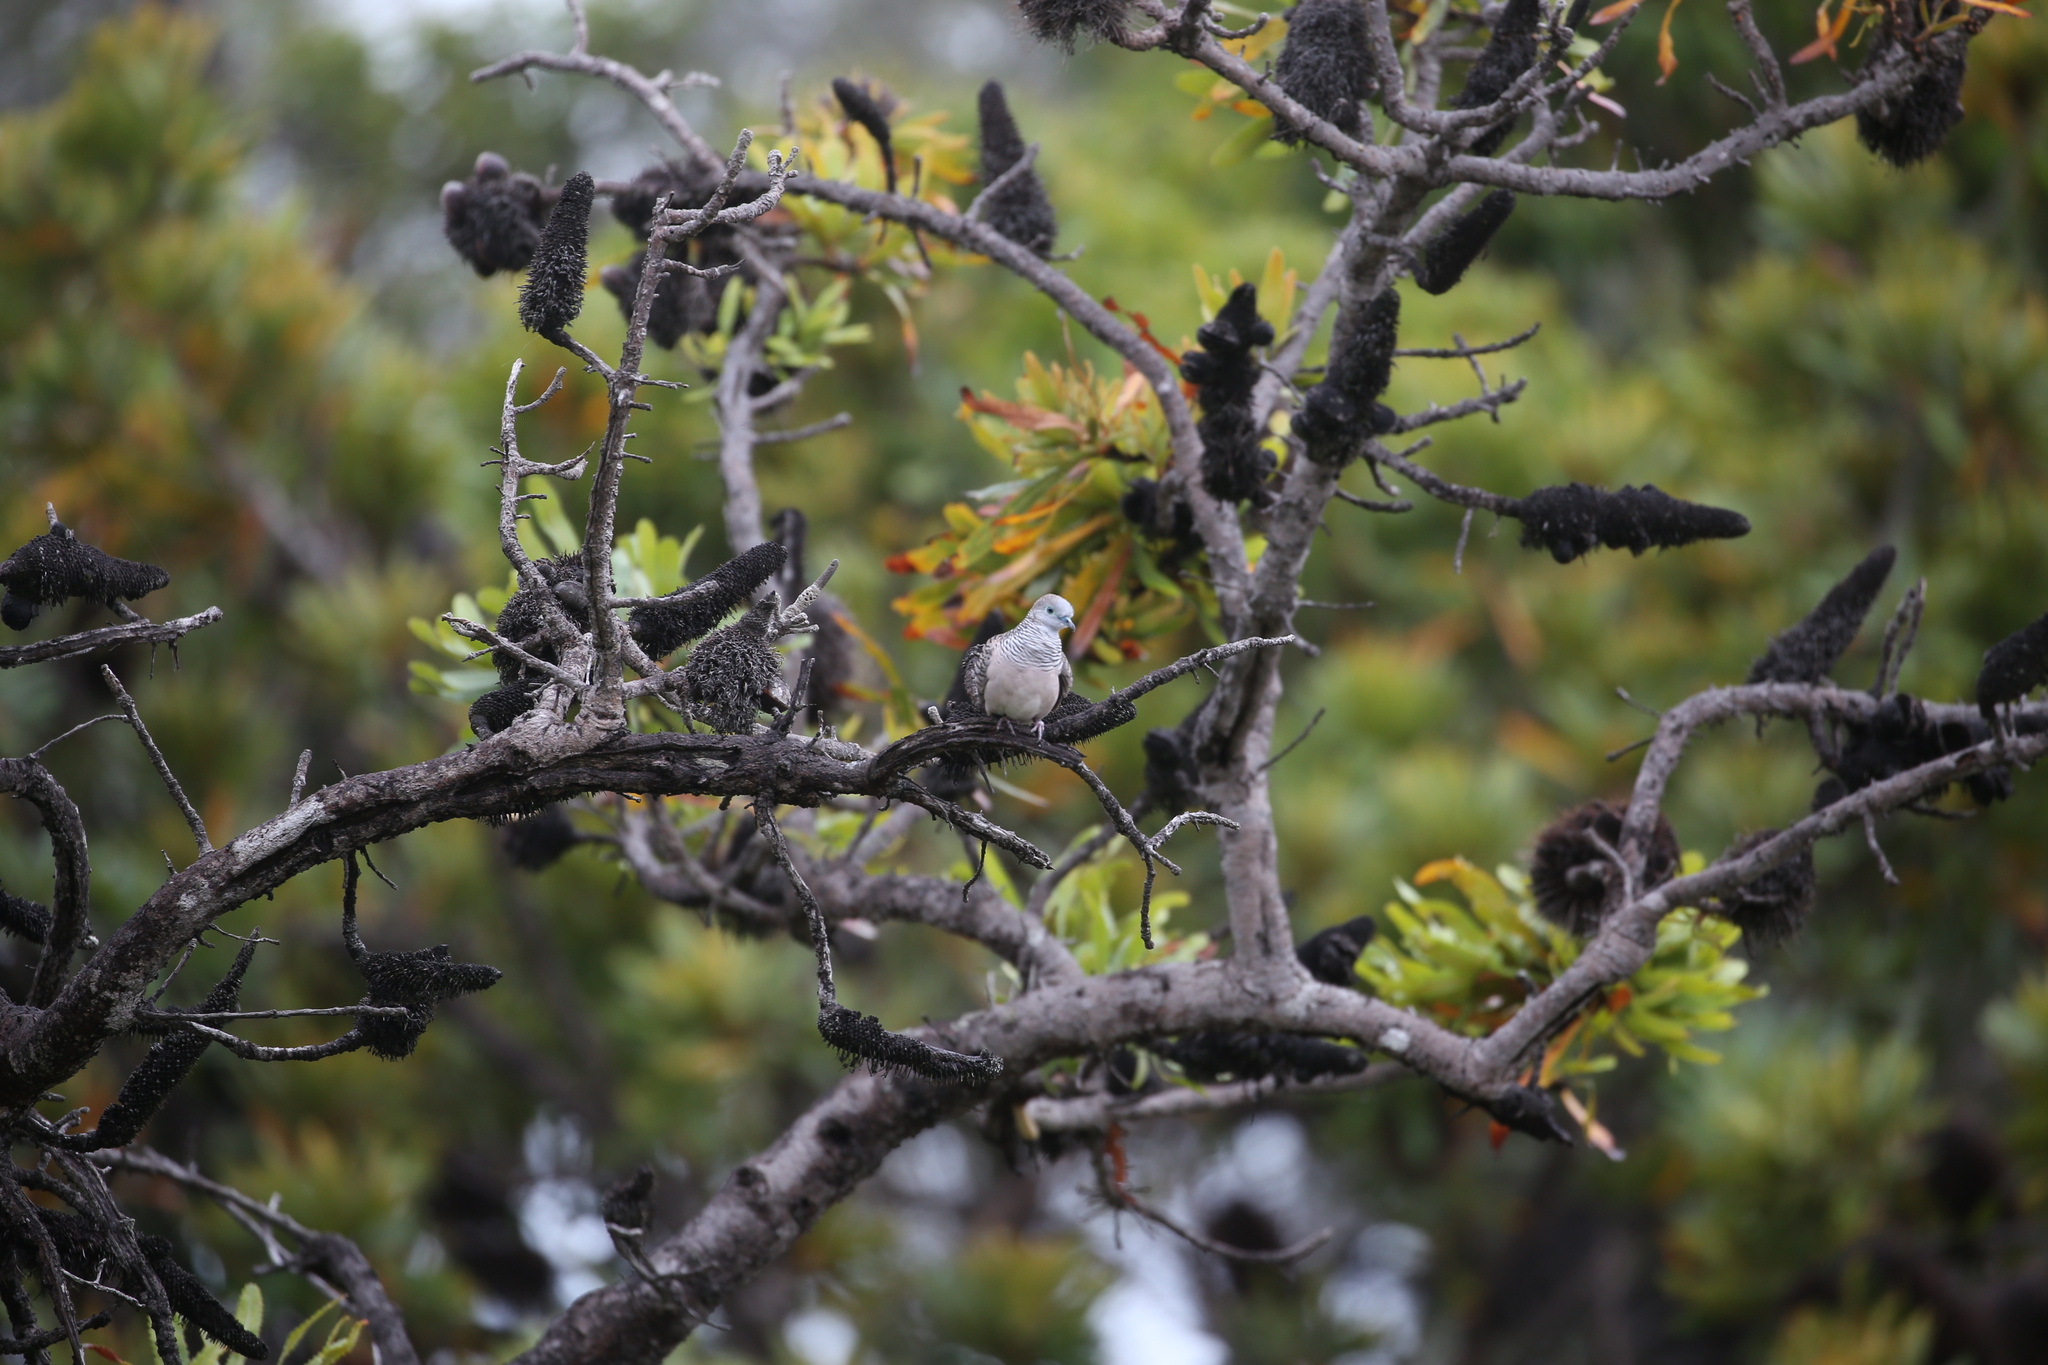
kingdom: Animalia
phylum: Chordata
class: Aves
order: Columbiformes
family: Columbidae
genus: Geopelia
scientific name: Geopelia placida
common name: Peaceful dove
